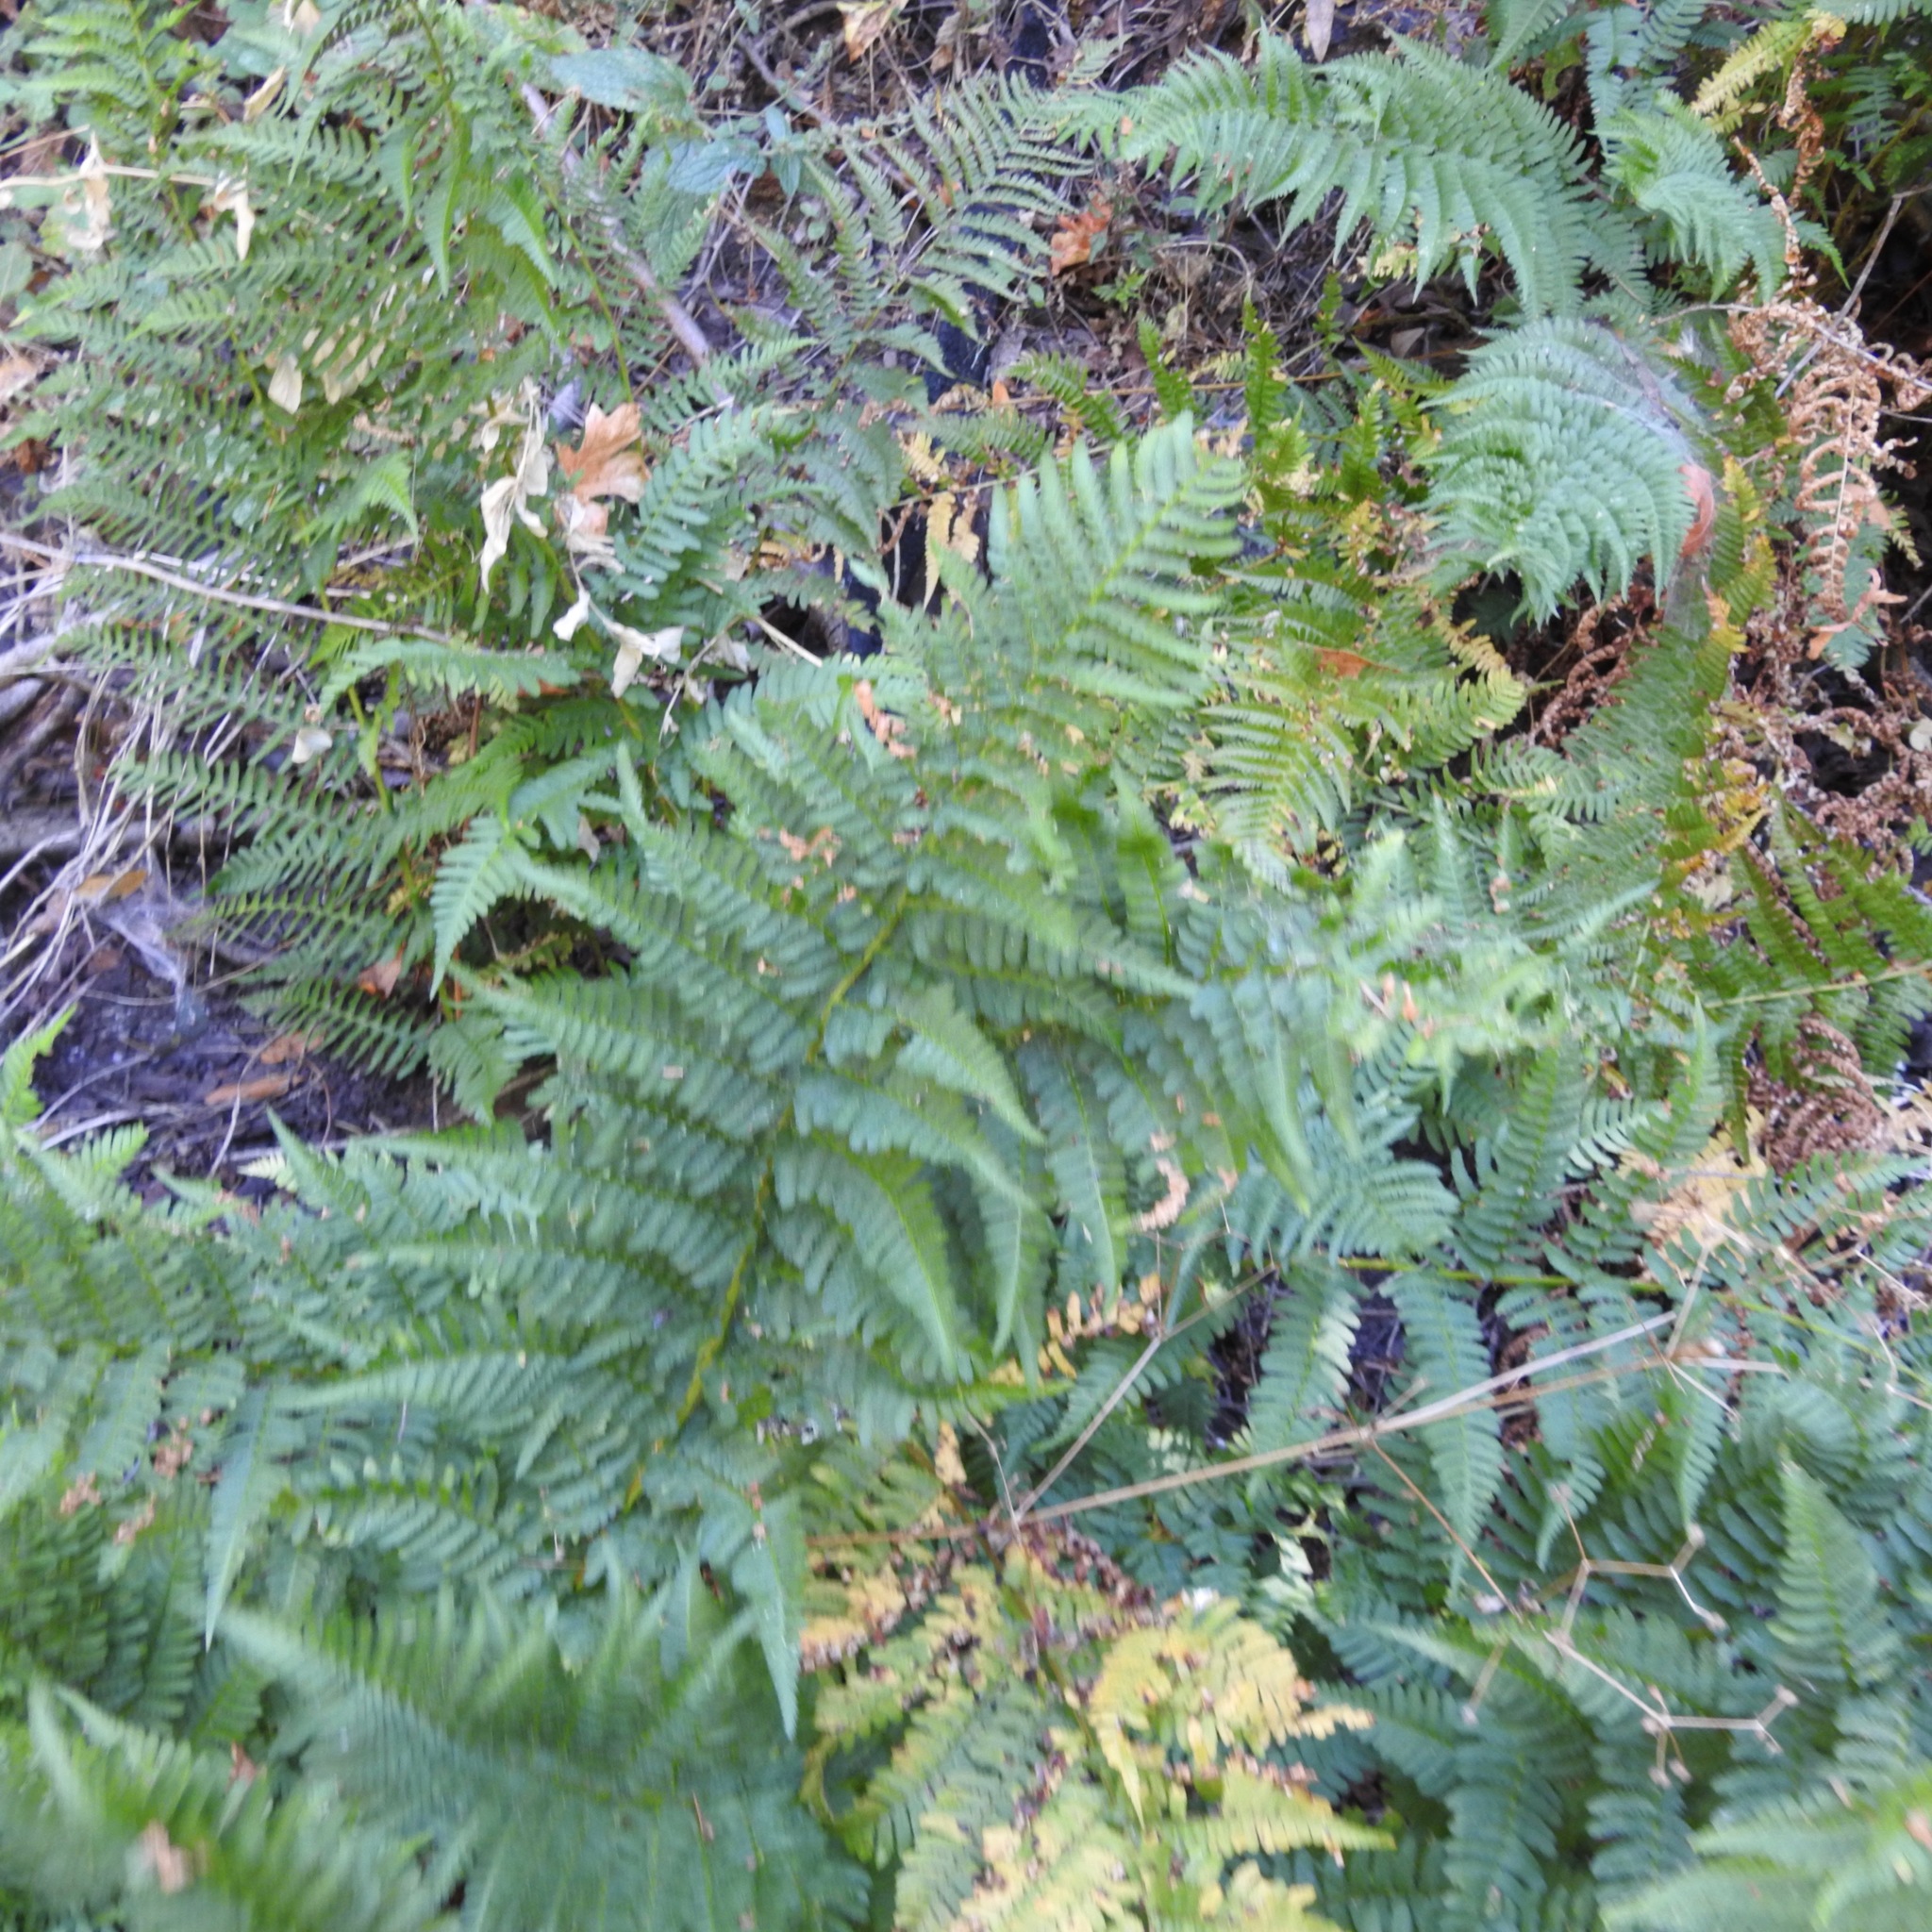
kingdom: Plantae
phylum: Tracheophyta
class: Polypodiopsida
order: Polypodiales
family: Dryopteridaceae
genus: Dryopteris
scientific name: Dryopteris arguta
